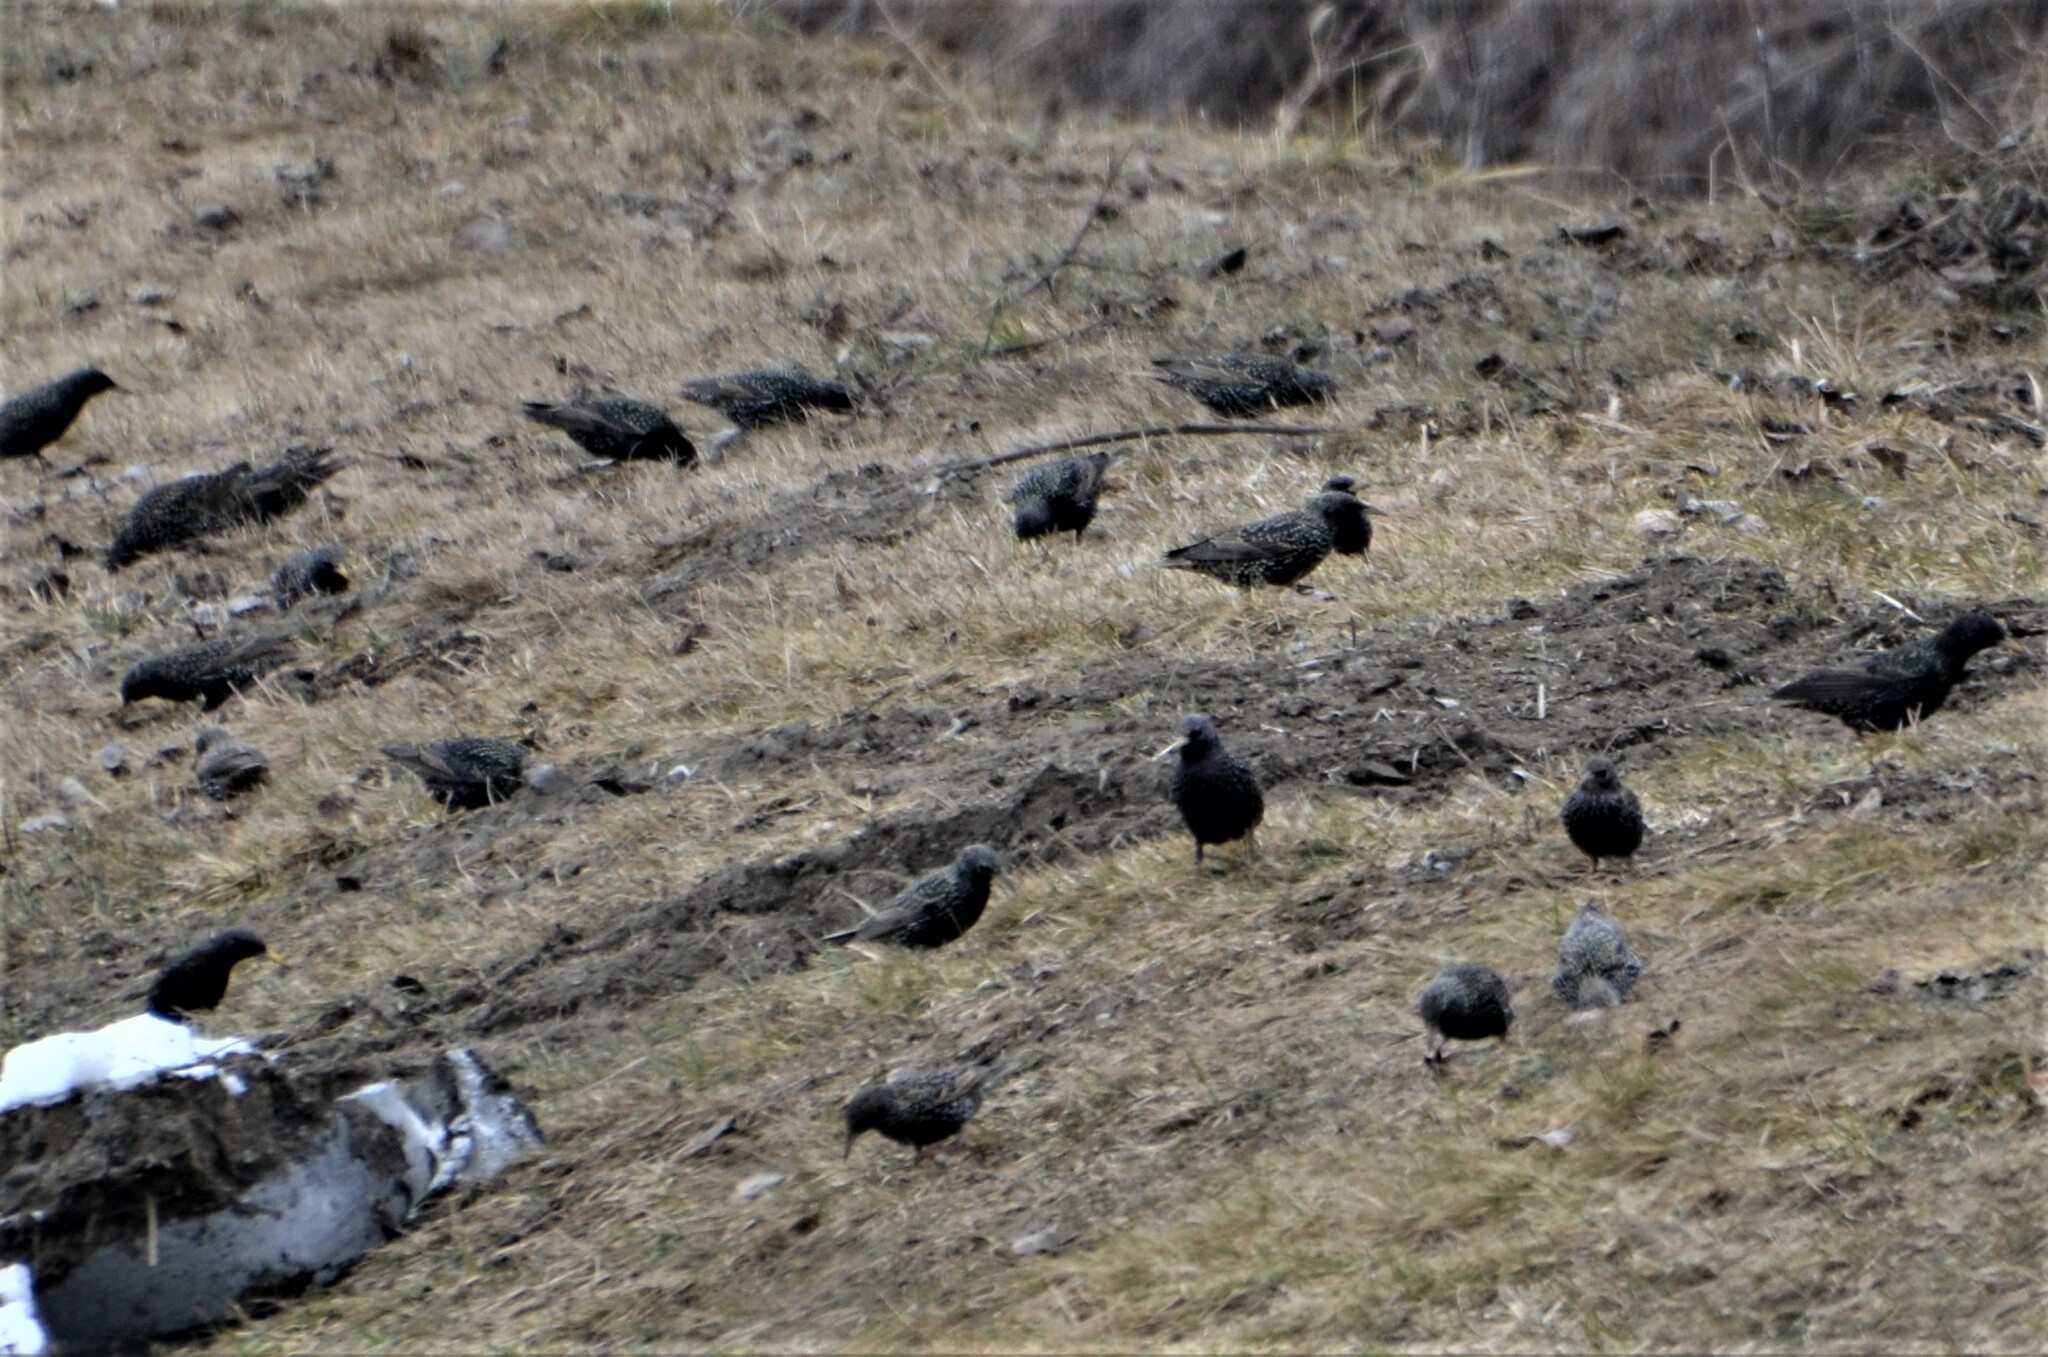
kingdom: Animalia
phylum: Chordata
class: Aves
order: Passeriformes
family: Sturnidae
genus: Sturnus
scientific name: Sturnus vulgaris
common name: Common starling
